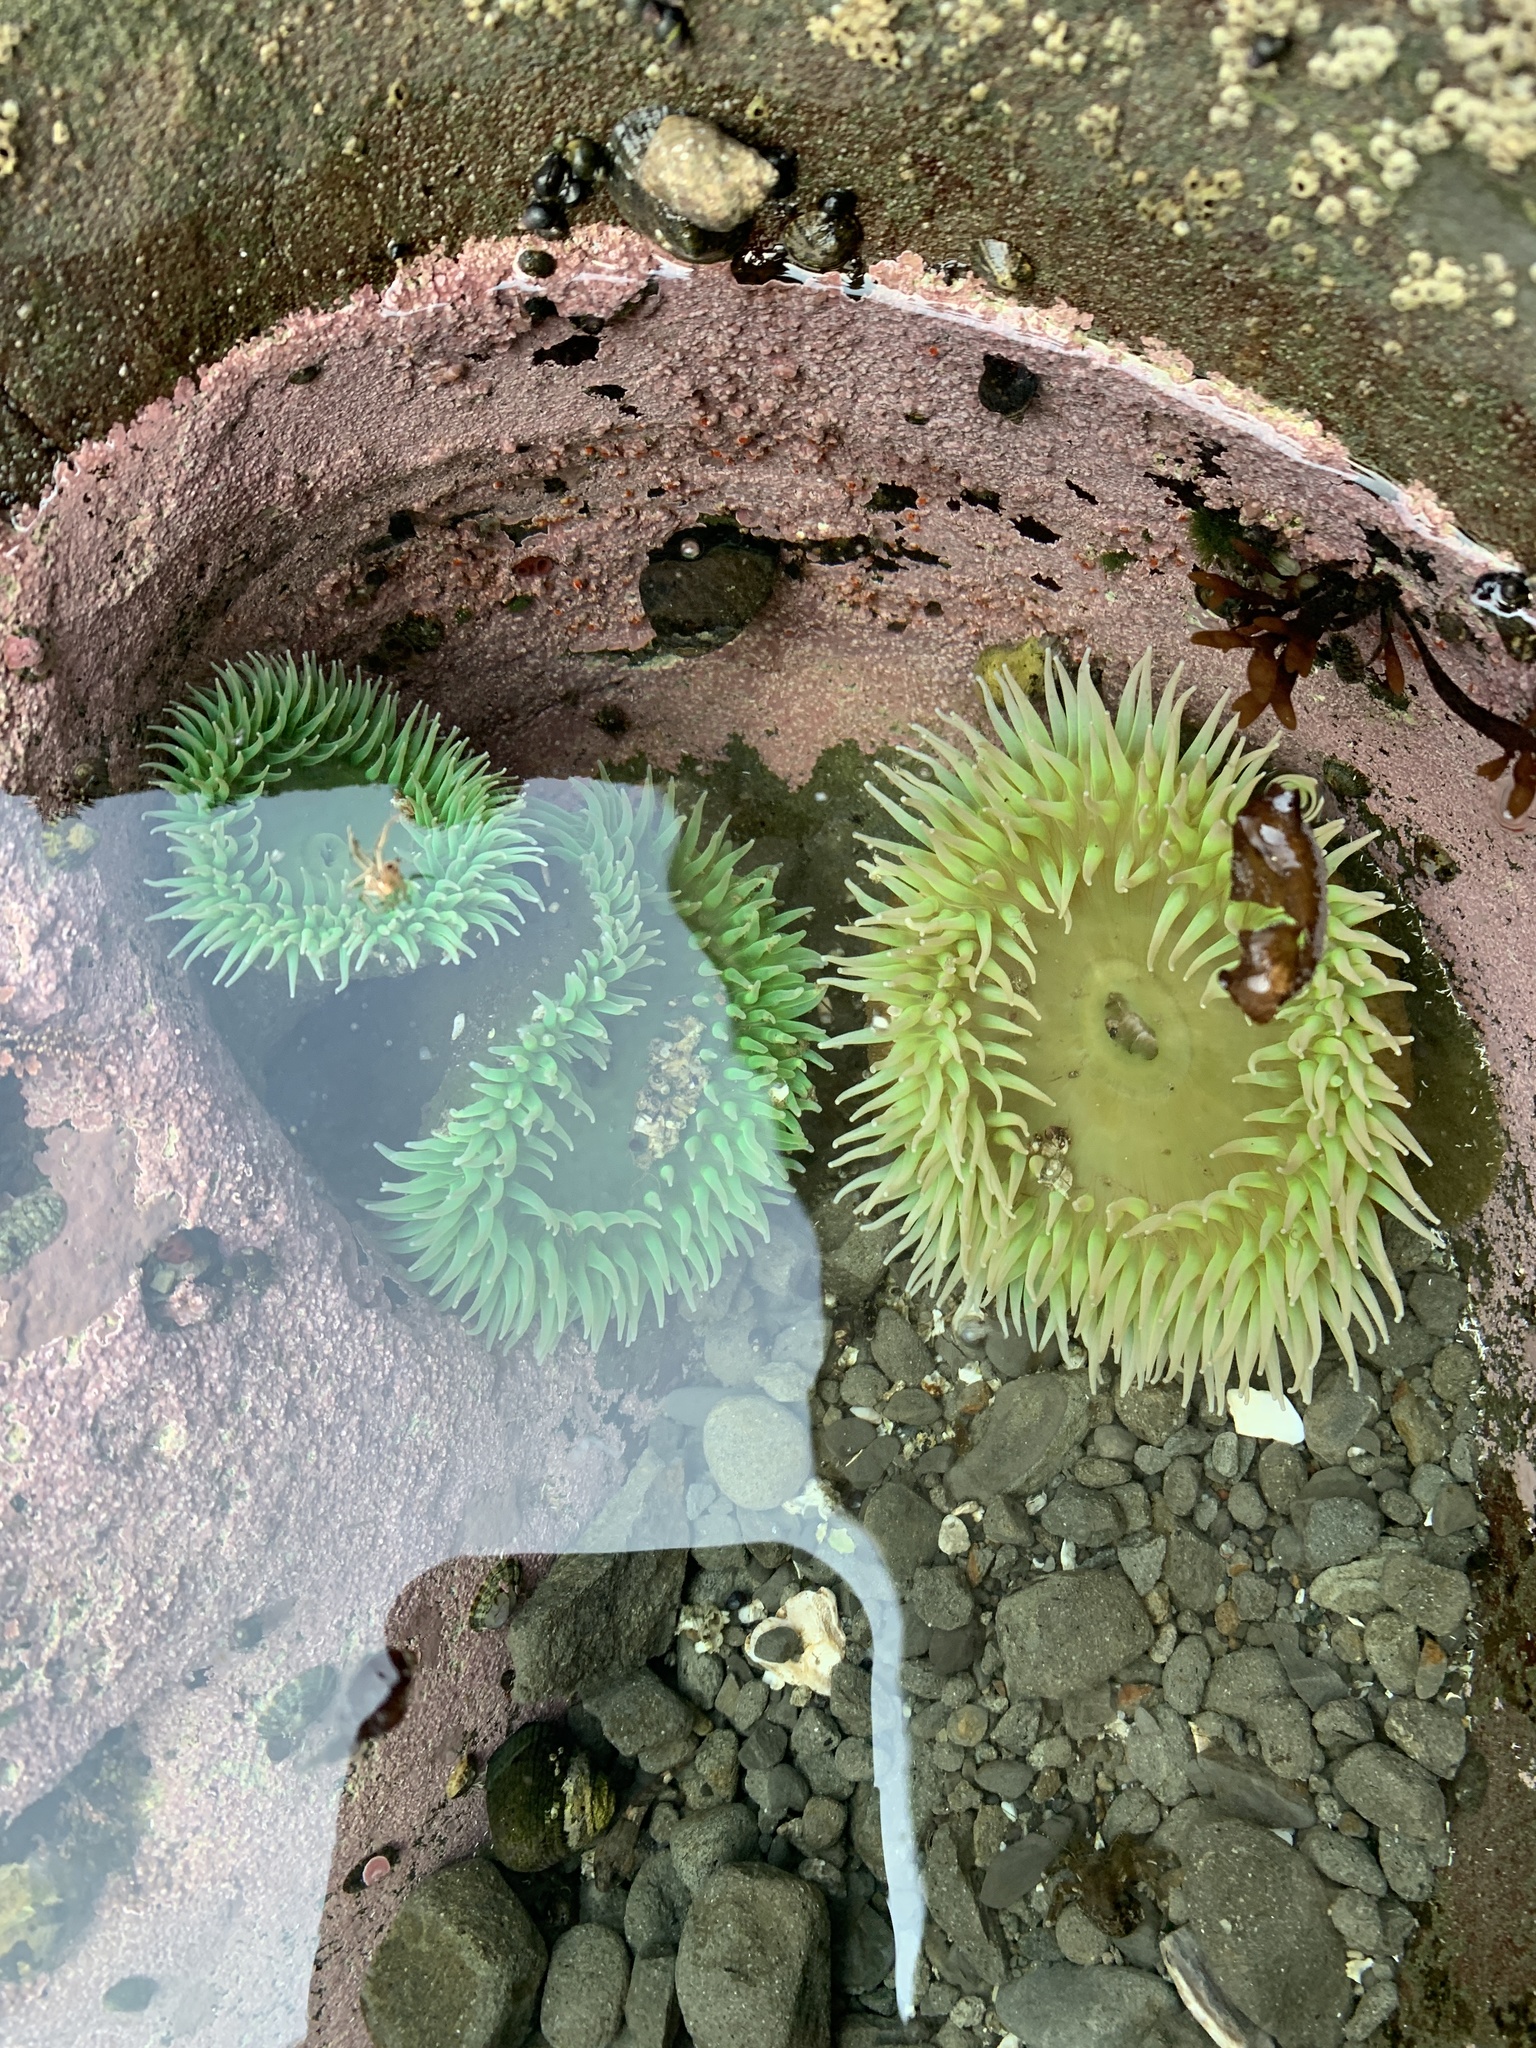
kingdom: Animalia
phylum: Cnidaria
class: Anthozoa
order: Actiniaria
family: Actiniidae
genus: Anthopleura
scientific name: Anthopleura xanthogrammica
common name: Giant green anemone
